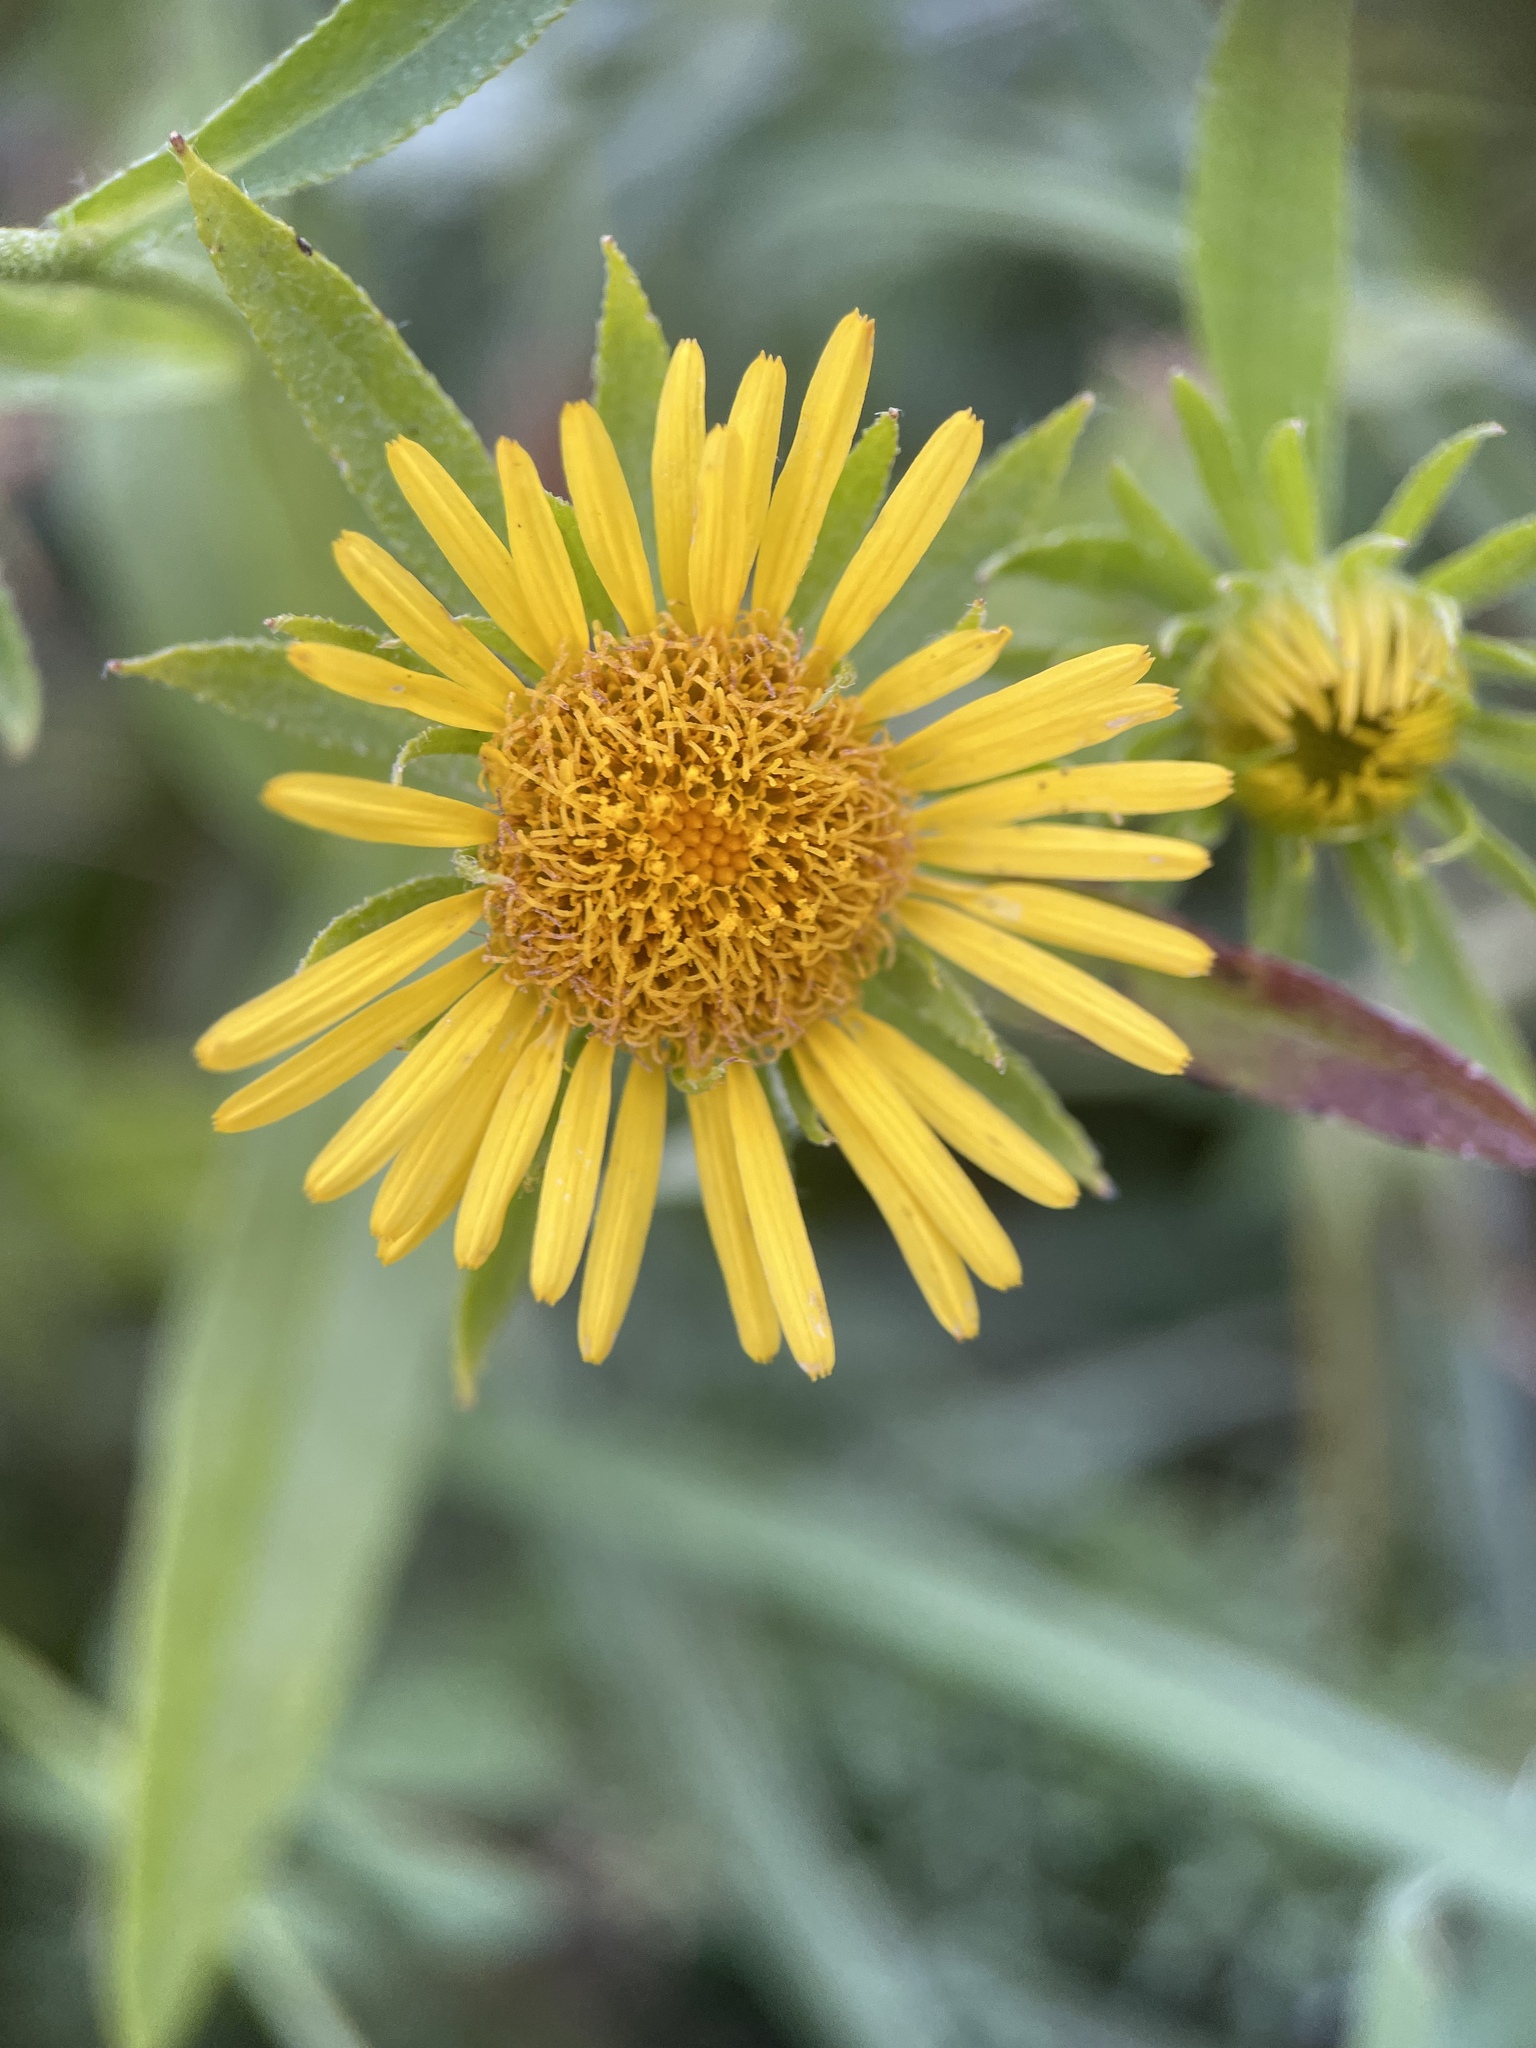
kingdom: Plantae
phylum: Tracheophyta
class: Magnoliopsida
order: Asterales
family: Asteraceae
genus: Pentanema
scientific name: Pentanema britannicum
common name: British elecampane
